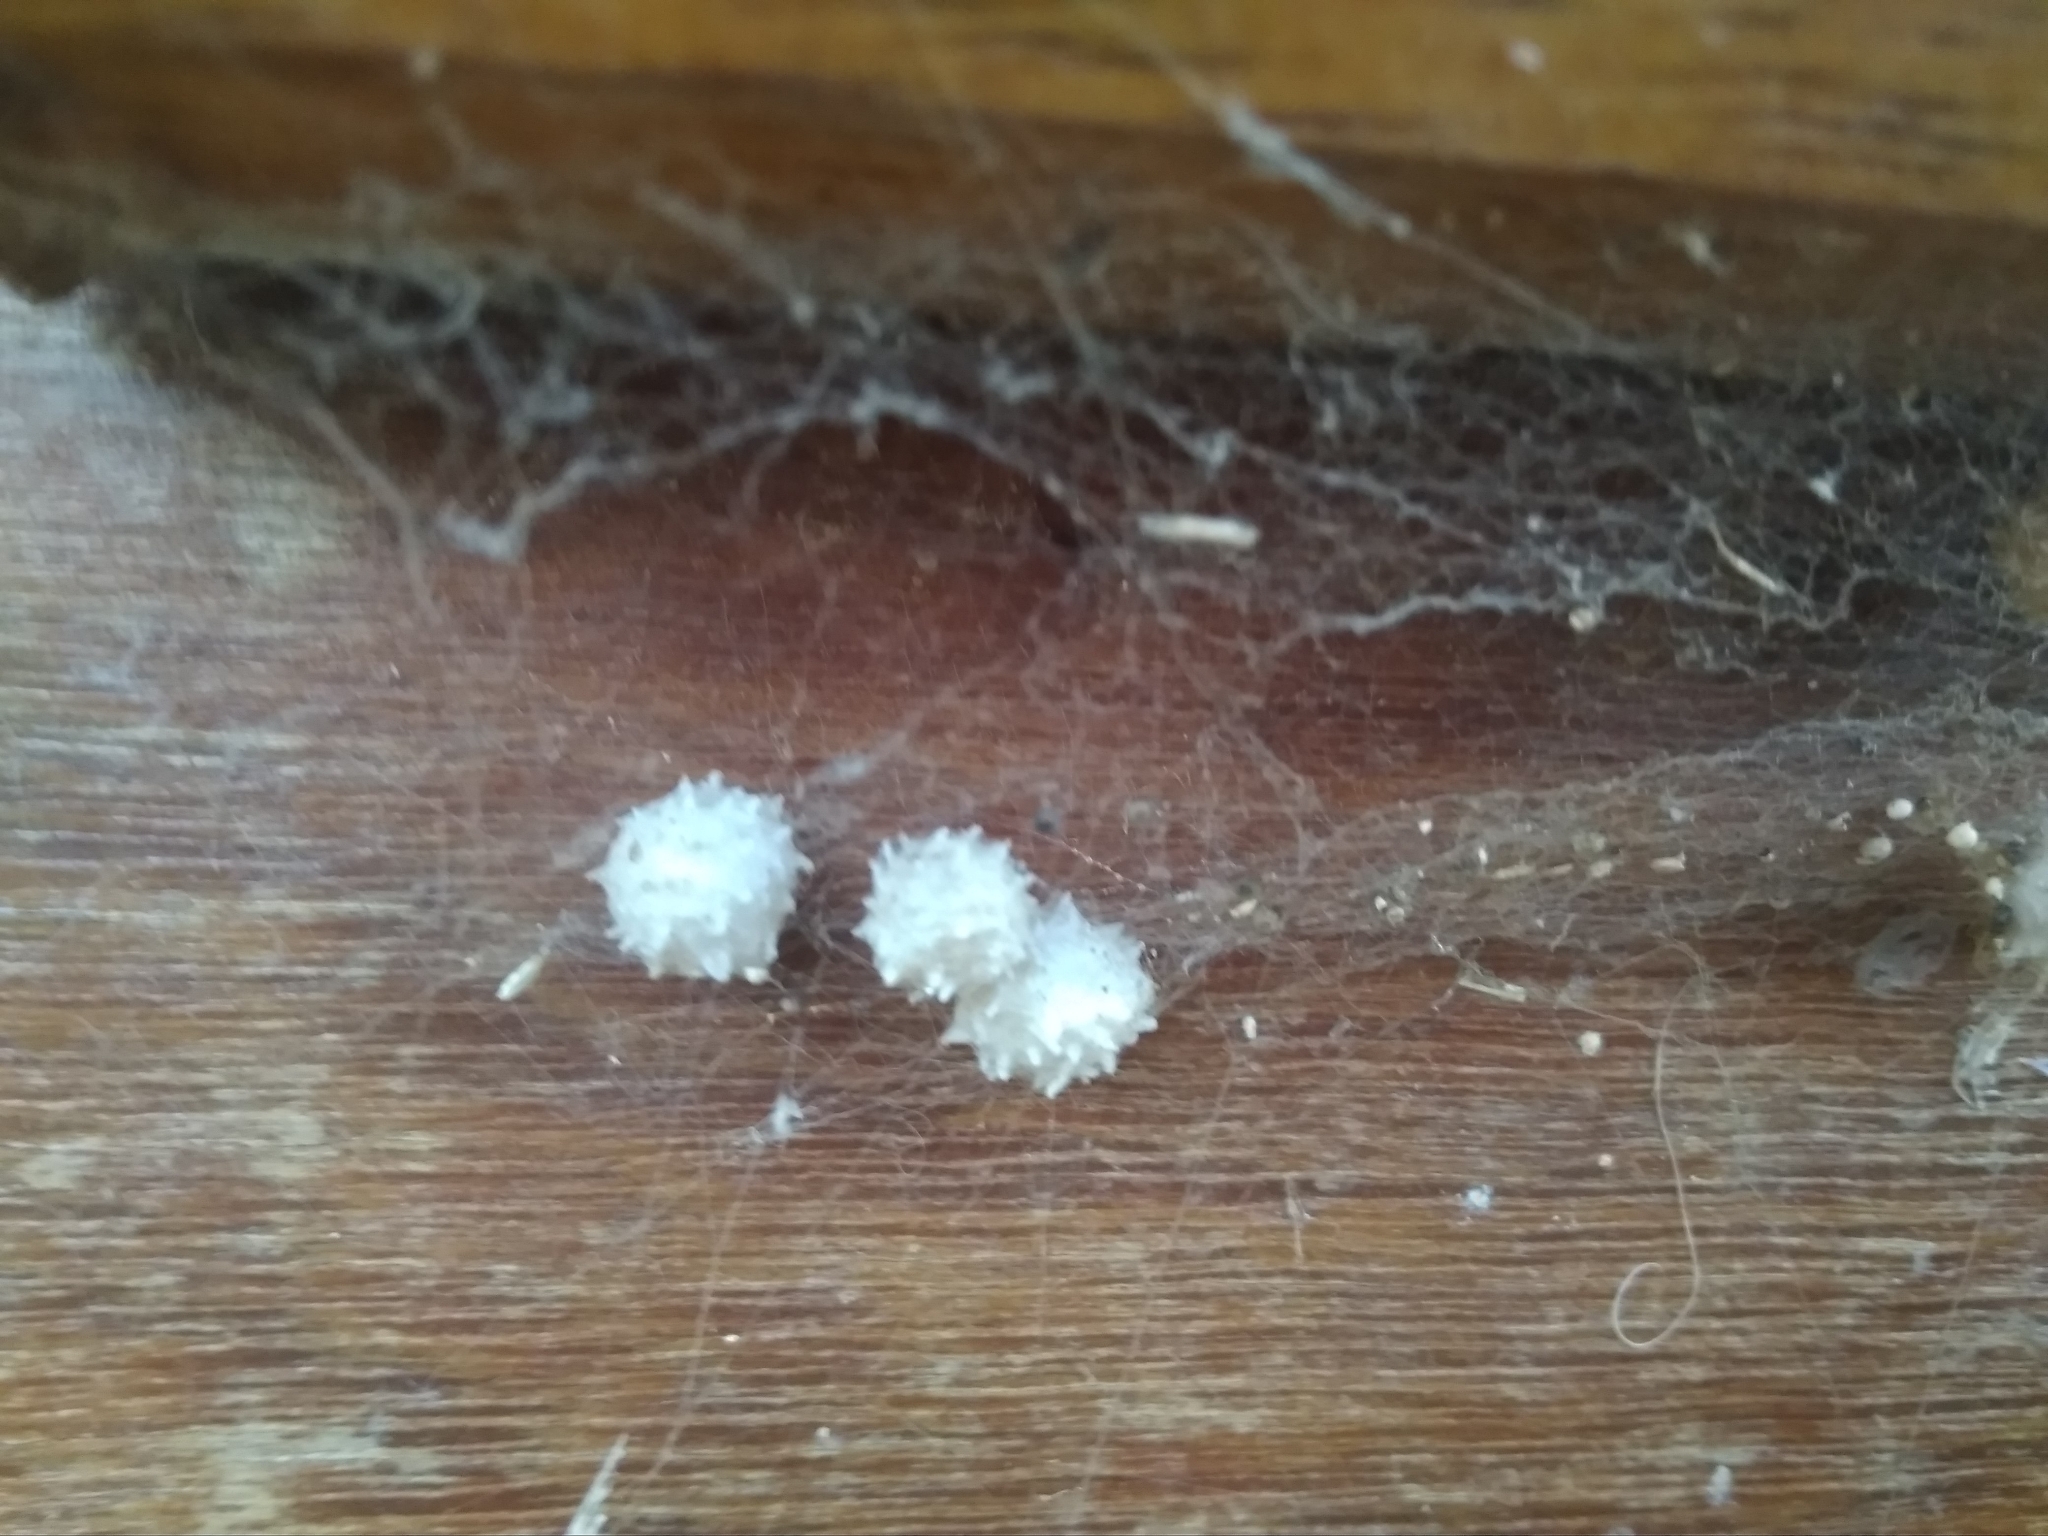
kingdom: Animalia
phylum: Arthropoda
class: Arachnida
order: Araneae
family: Theridiidae
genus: Latrodectus
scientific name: Latrodectus geometricus
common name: Brown widow spider
